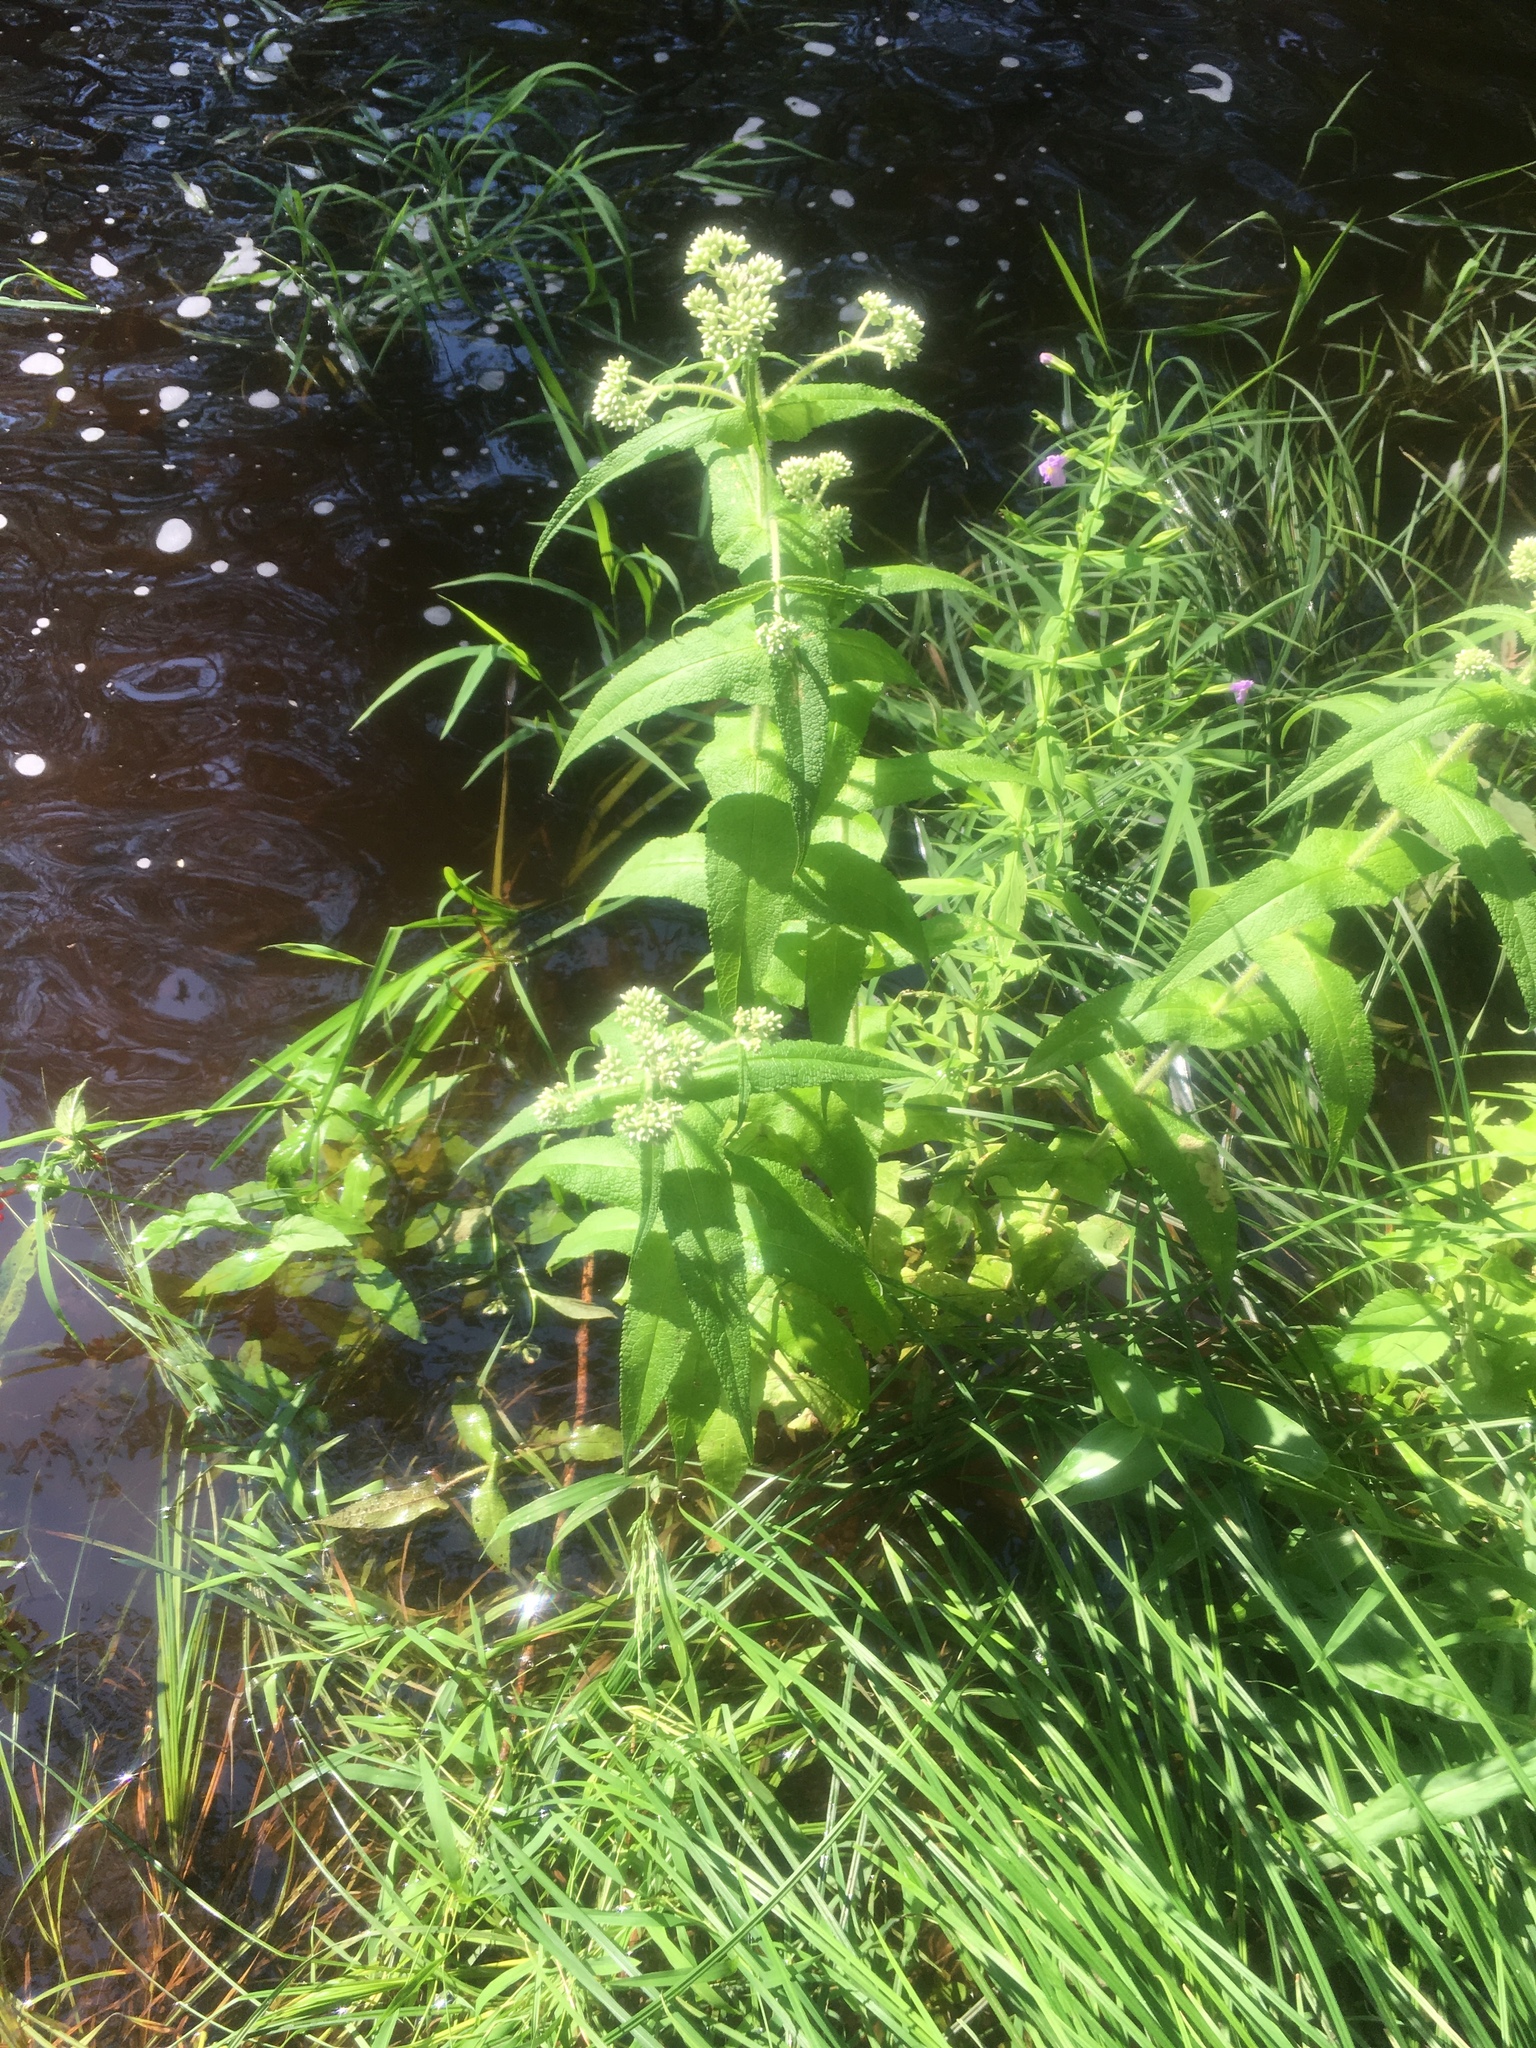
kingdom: Plantae
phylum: Tracheophyta
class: Magnoliopsida
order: Asterales
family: Asteraceae
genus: Eupatorium
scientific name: Eupatorium perfoliatum
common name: Boneset
